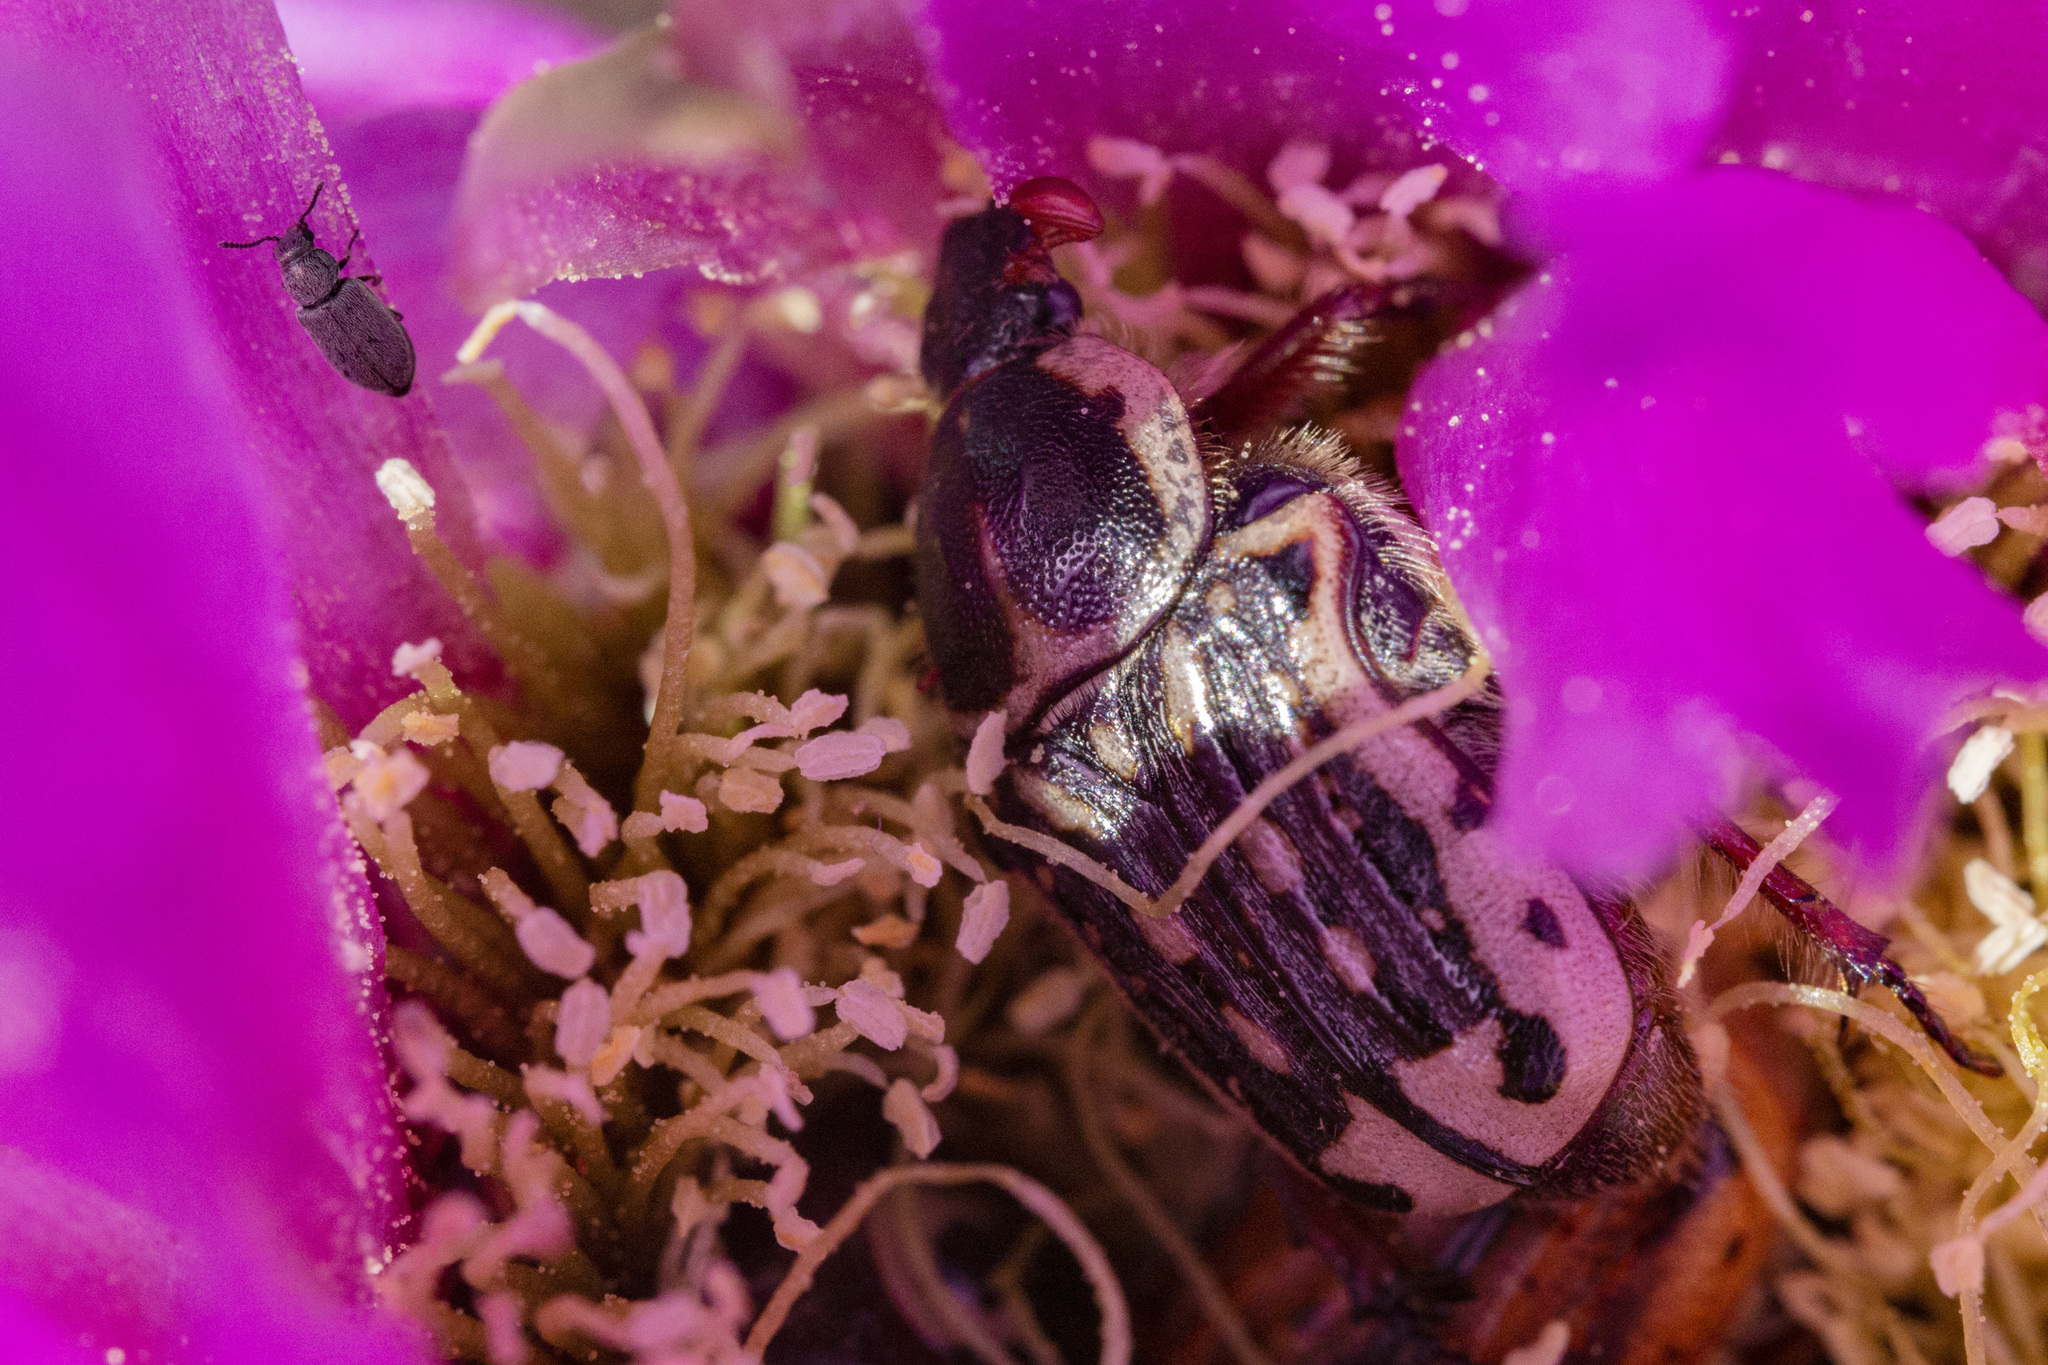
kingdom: Animalia
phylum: Arthropoda
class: Insecta
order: Coleoptera
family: Scarabaeidae
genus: Euphoria
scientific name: Euphoria kernii
